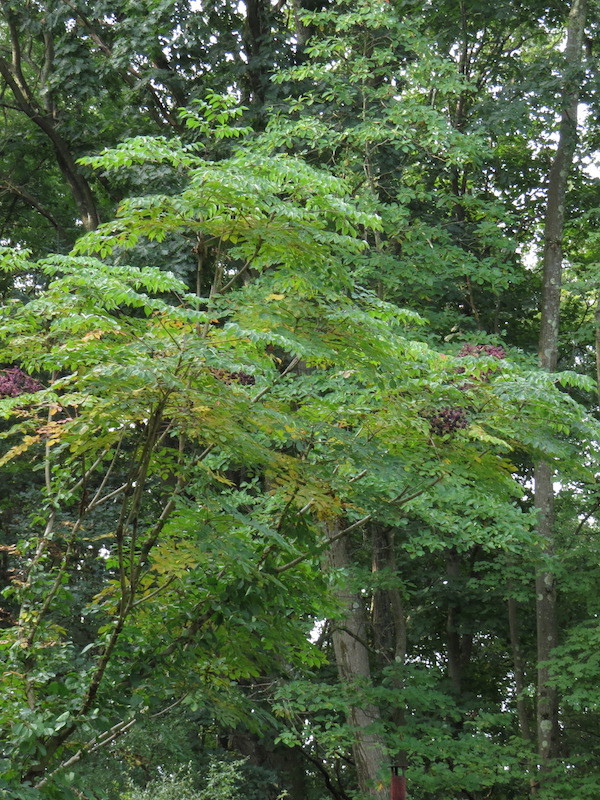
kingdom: Plantae
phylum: Tracheophyta
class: Magnoliopsida
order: Apiales
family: Araliaceae
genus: Aralia
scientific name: Aralia spinosa
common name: Hercules'-club
